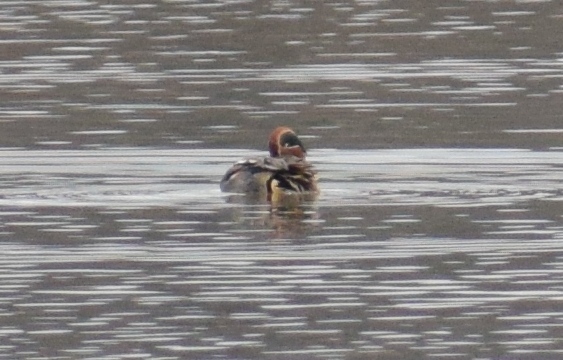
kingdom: Animalia
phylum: Chordata
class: Aves
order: Anseriformes
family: Anatidae
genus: Anas
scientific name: Anas crecca
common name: Eurasian teal
